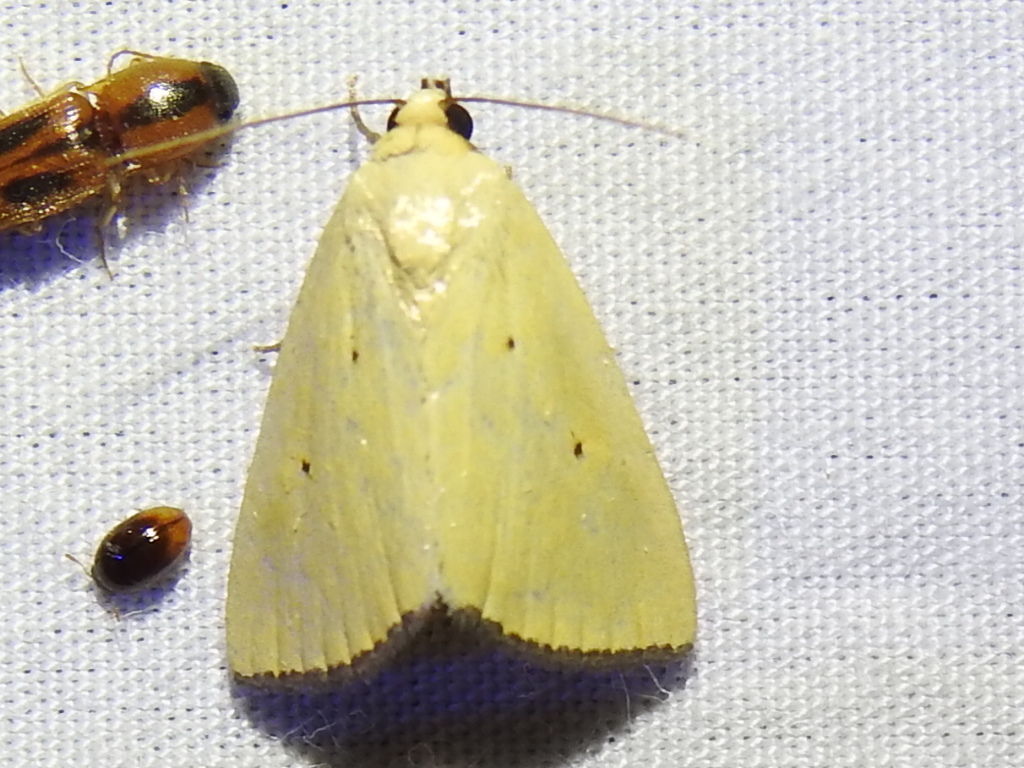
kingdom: Animalia
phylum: Arthropoda
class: Insecta
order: Lepidoptera
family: Noctuidae
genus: Marimatha
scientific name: Marimatha nigrofimbria
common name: Black-bordered lemon moth
